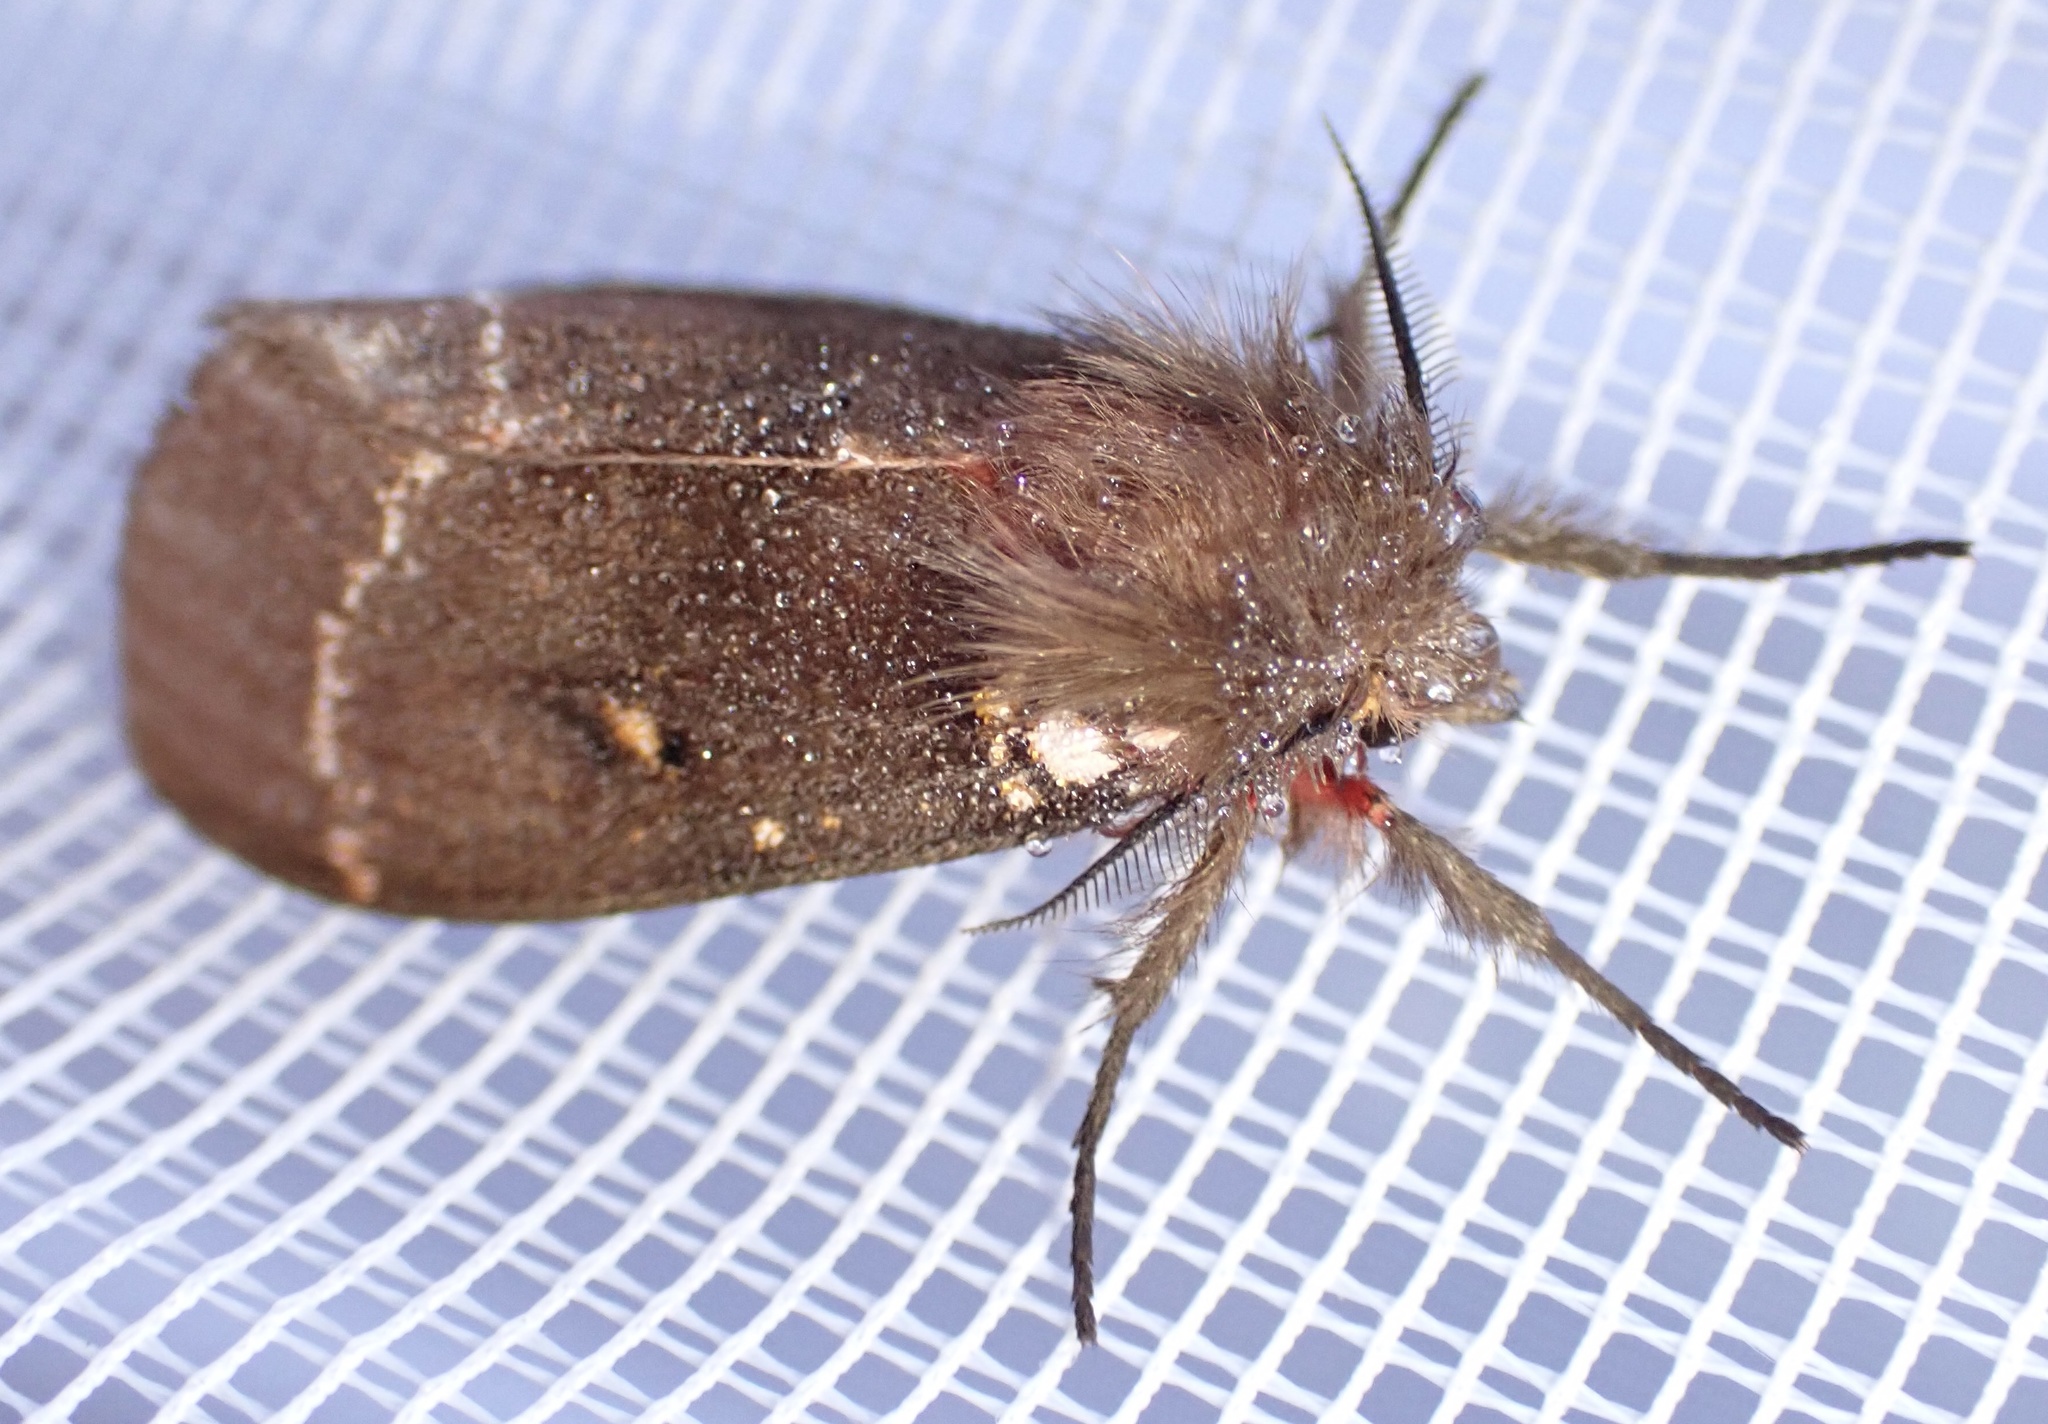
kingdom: Animalia
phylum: Arthropoda
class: Insecta
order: Lepidoptera
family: Erebidae
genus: Lymantria
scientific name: Lymantria Morasa modesta
